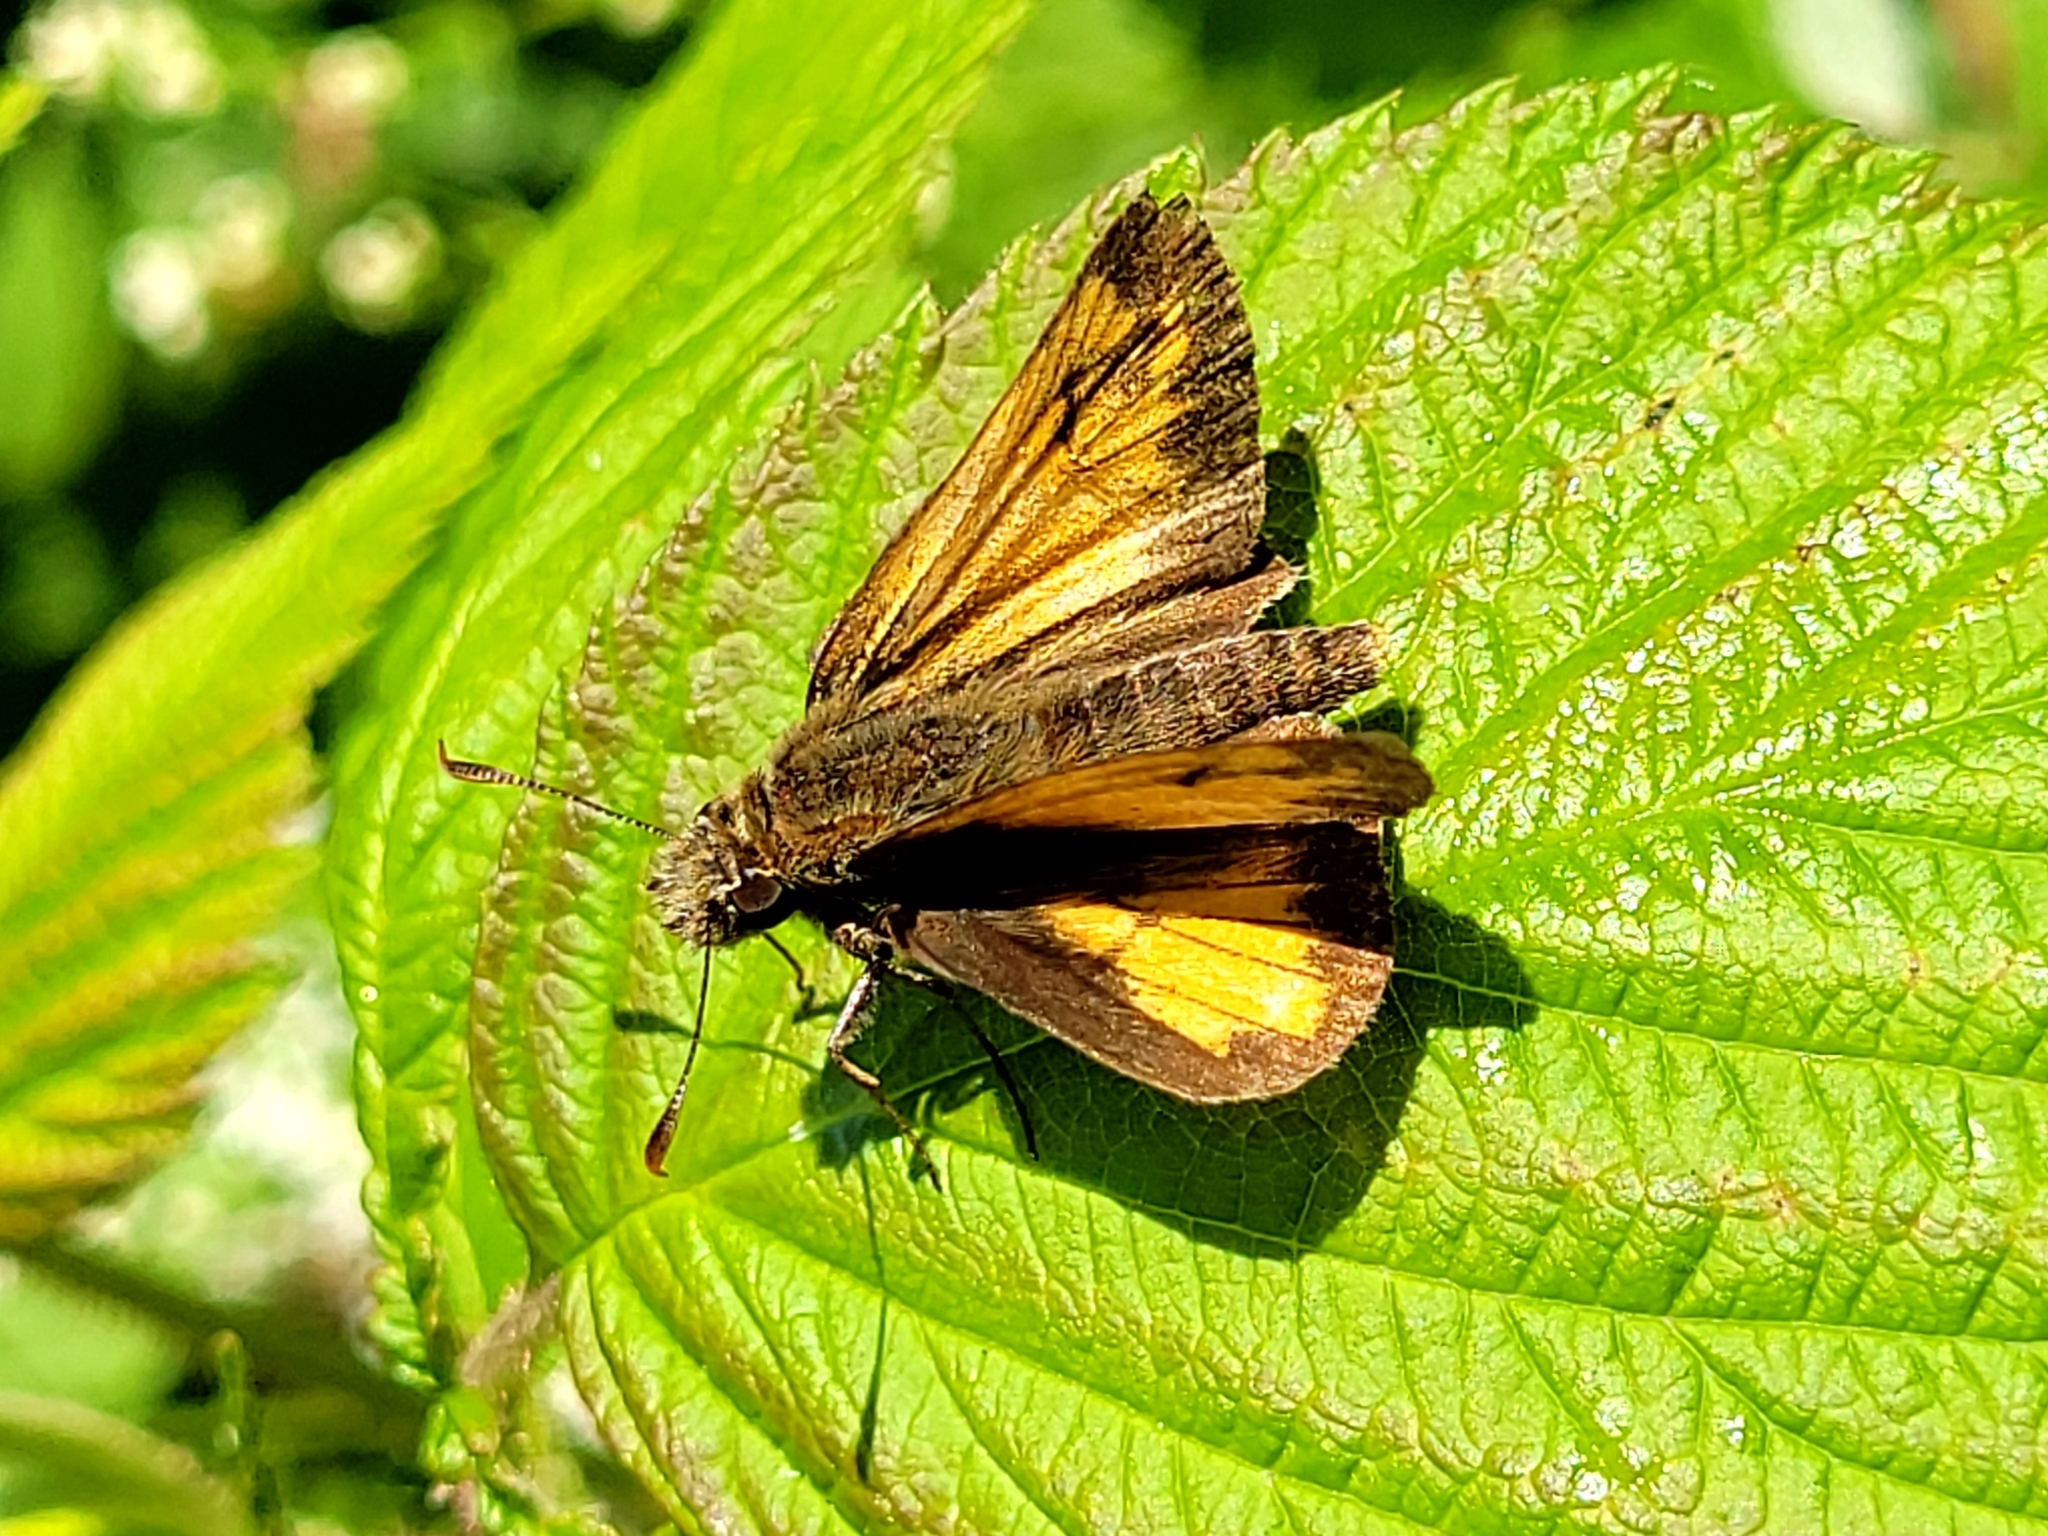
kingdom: Animalia
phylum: Arthropoda
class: Insecta
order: Lepidoptera
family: Hesperiidae
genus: Lon
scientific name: Lon hobomok
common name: Hobomok skipper
